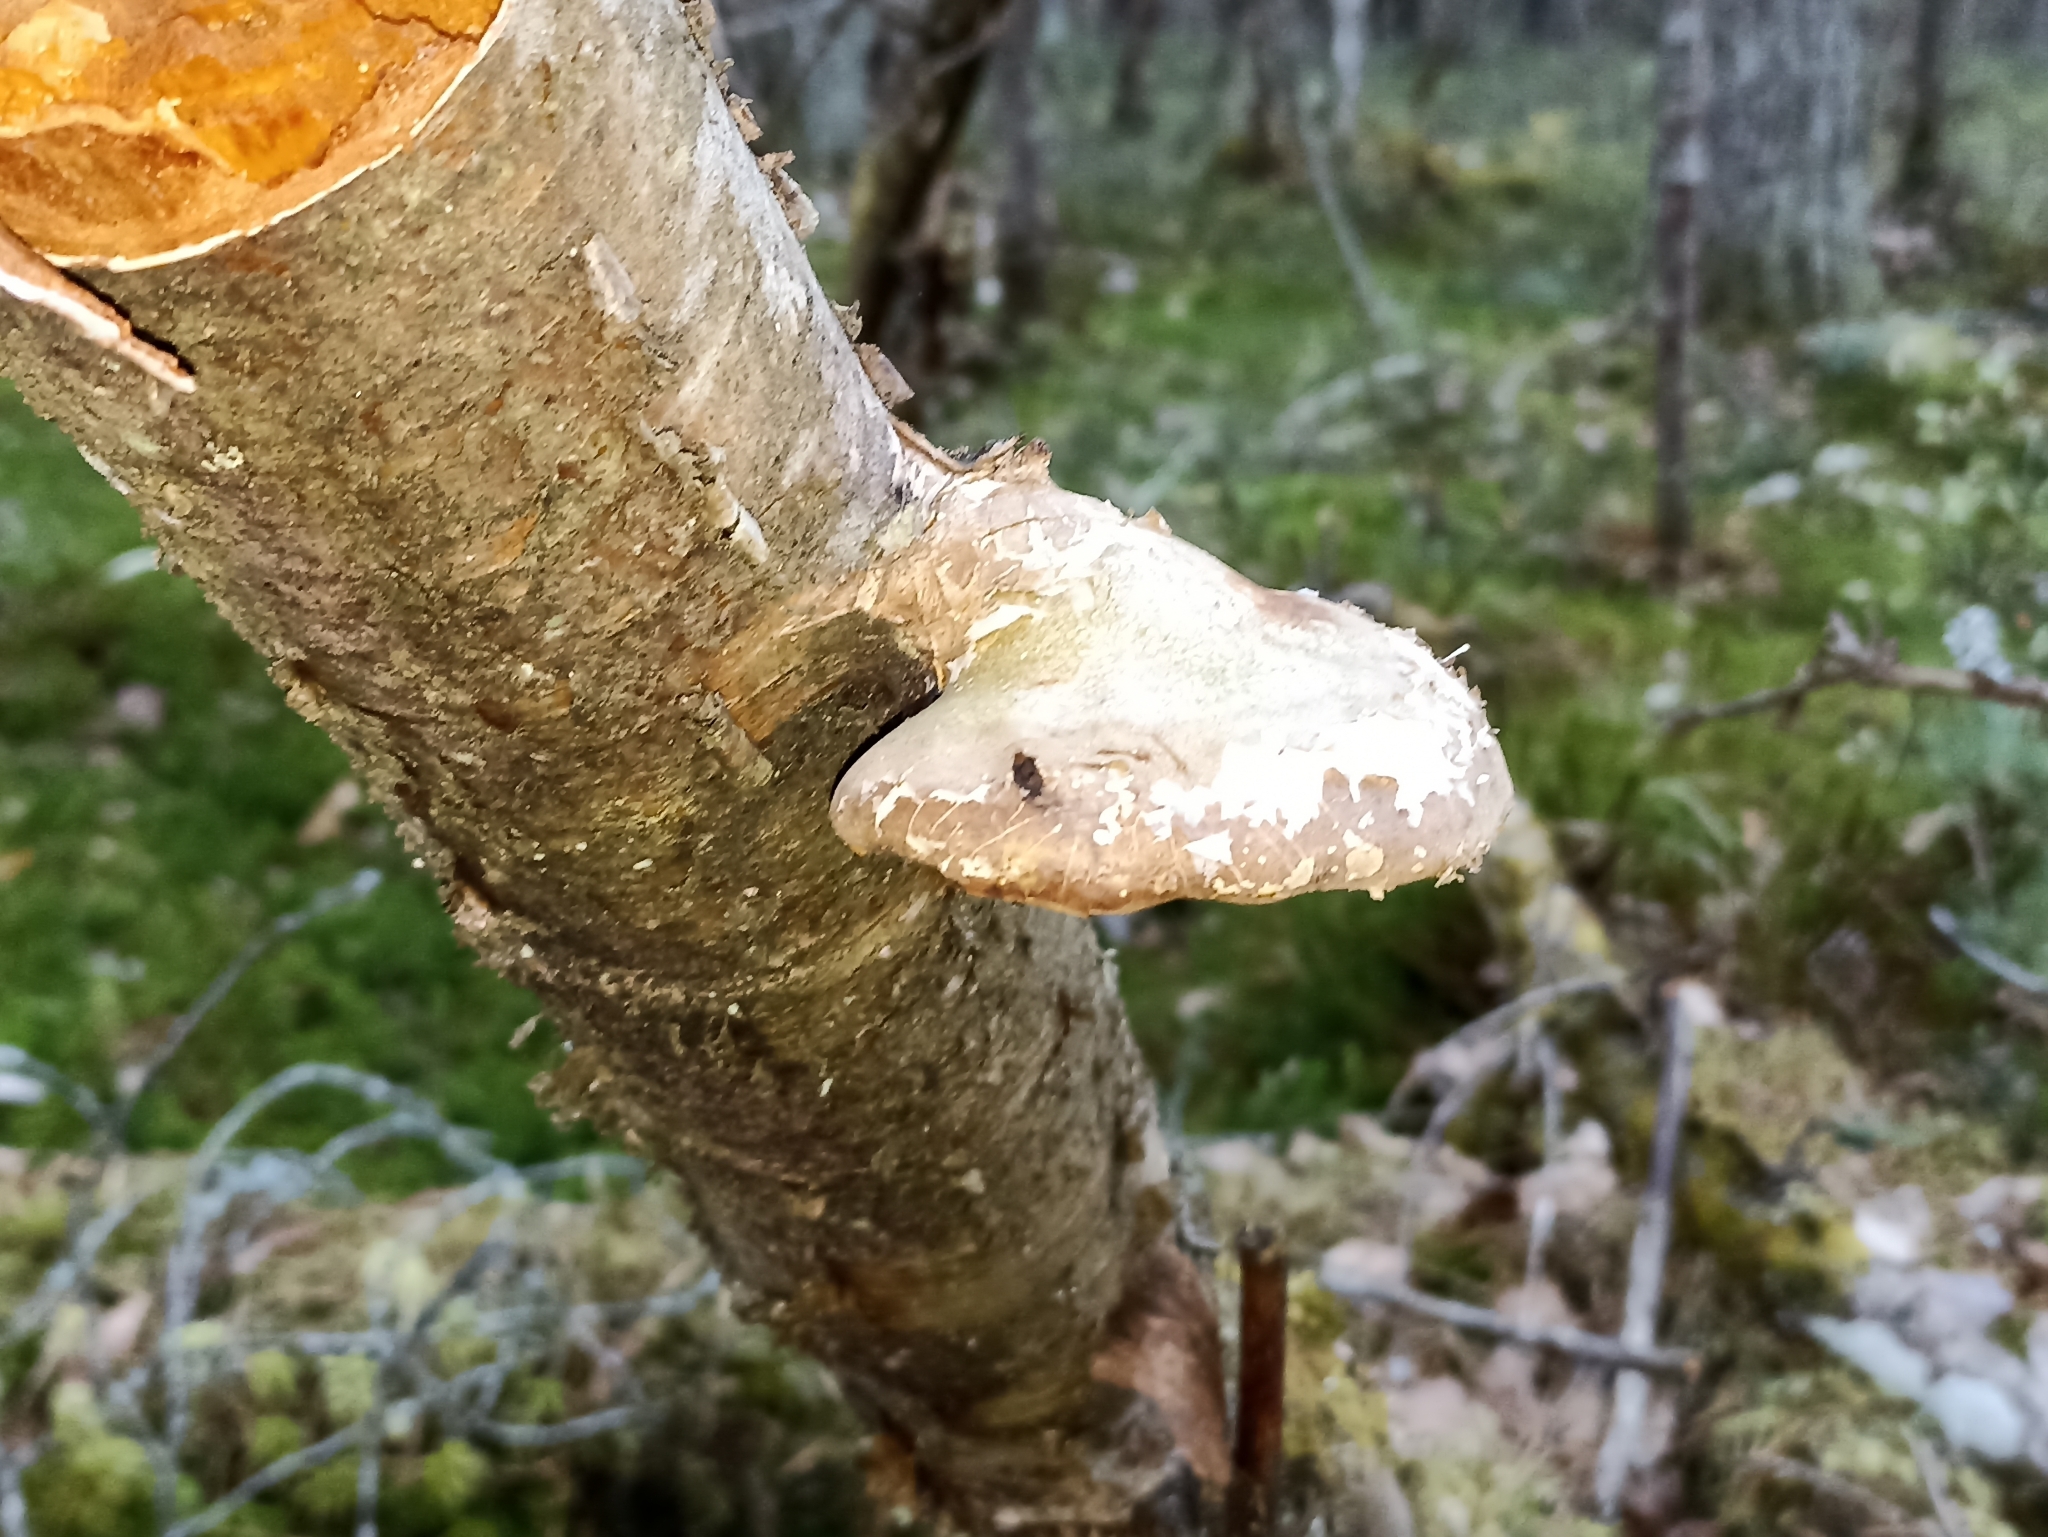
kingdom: Fungi
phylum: Basidiomycota
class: Agaricomycetes
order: Polyporales
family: Fomitopsidaceae
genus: Fomitopsis
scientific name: Fomitopsis betulina
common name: Birch polypore
